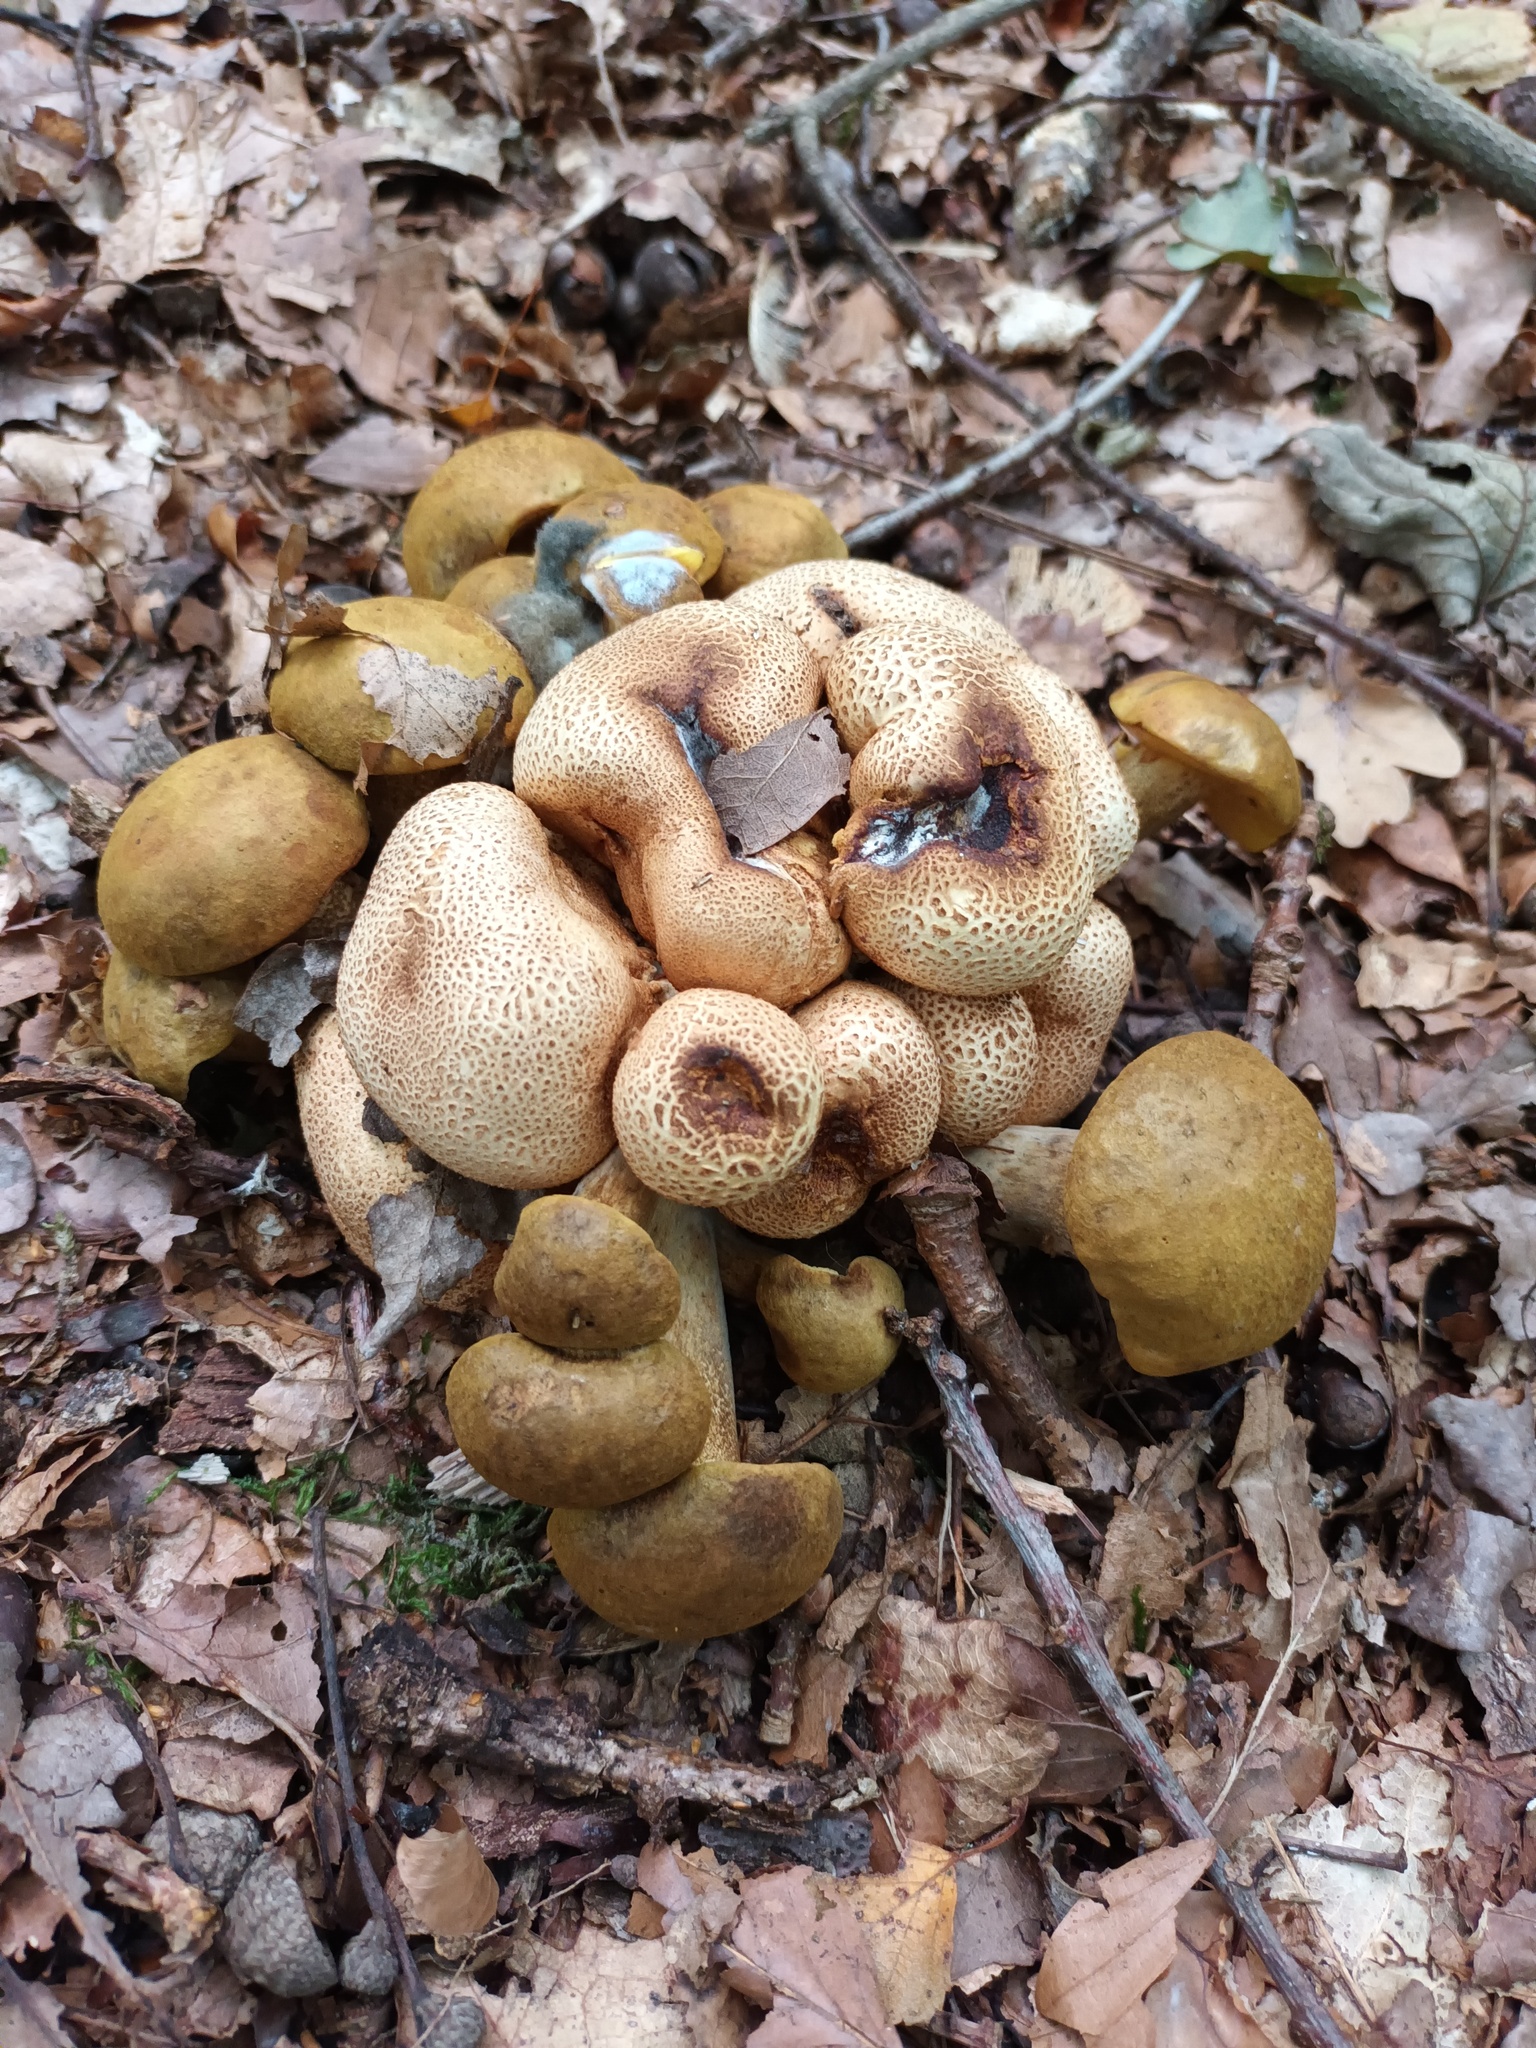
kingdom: Fungi
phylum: Basidiomycota
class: Agaricomycetes
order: Boletales
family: Boletaceae
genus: Pseudoboletus
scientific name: Pseudoboletus parasiticus
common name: Parasitic bolete
